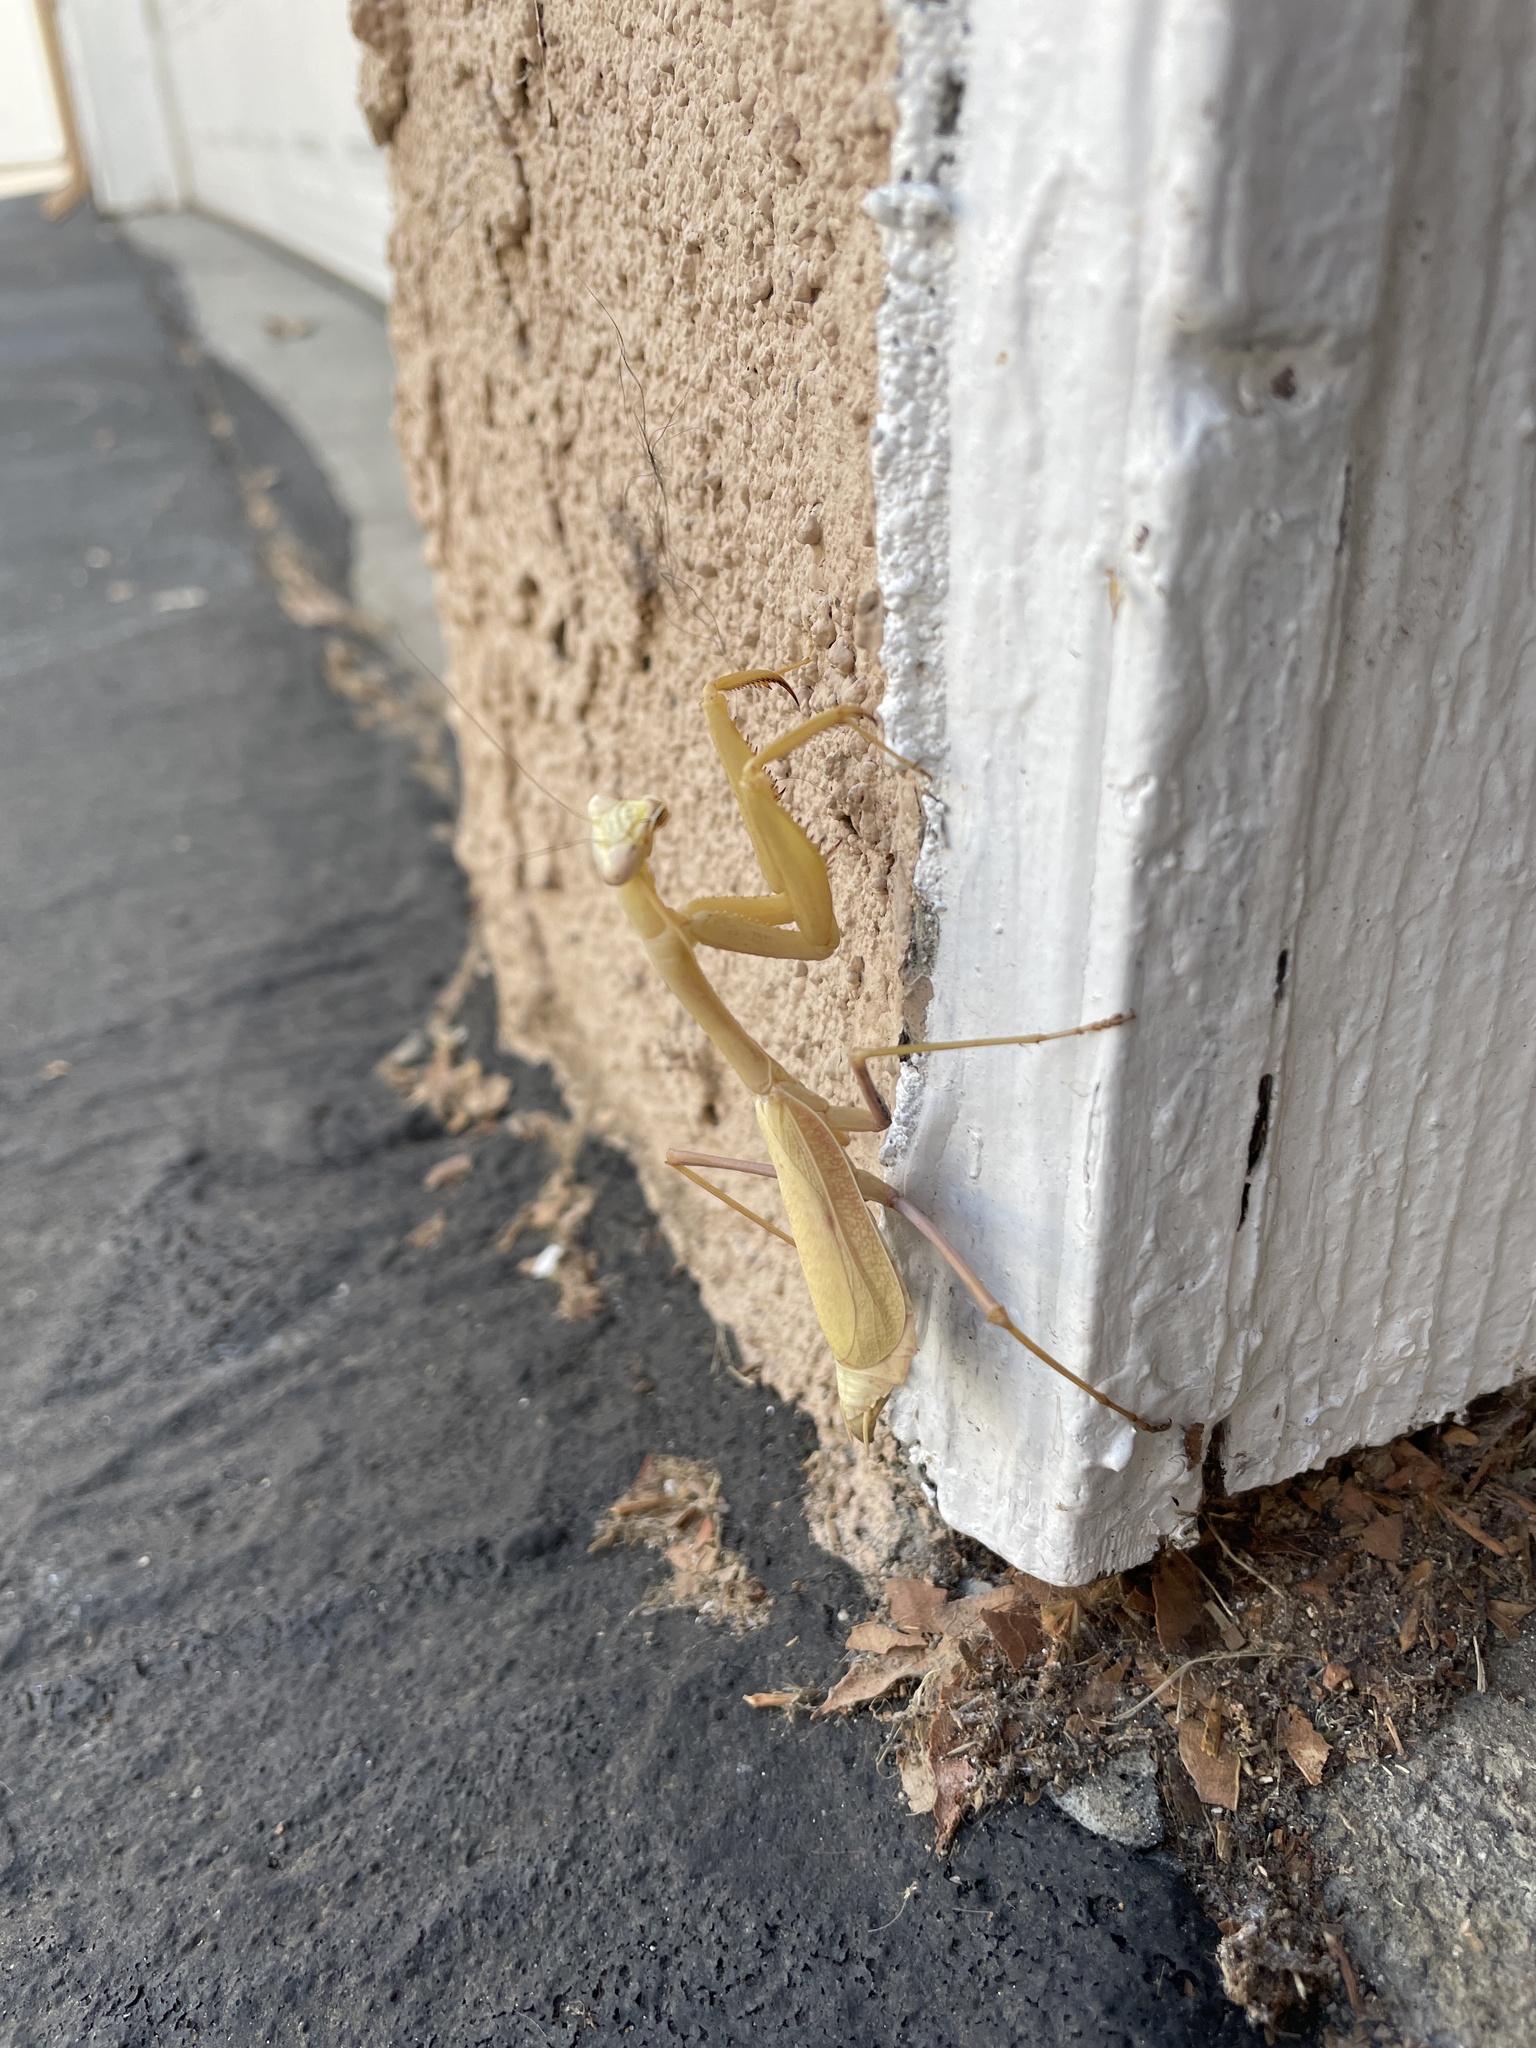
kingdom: Animalia
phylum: Arthropoda
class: Insecta
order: Mantodea
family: Eremiaphilidae
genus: Iris
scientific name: Iris oratoria
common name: Mediterranean mantis
